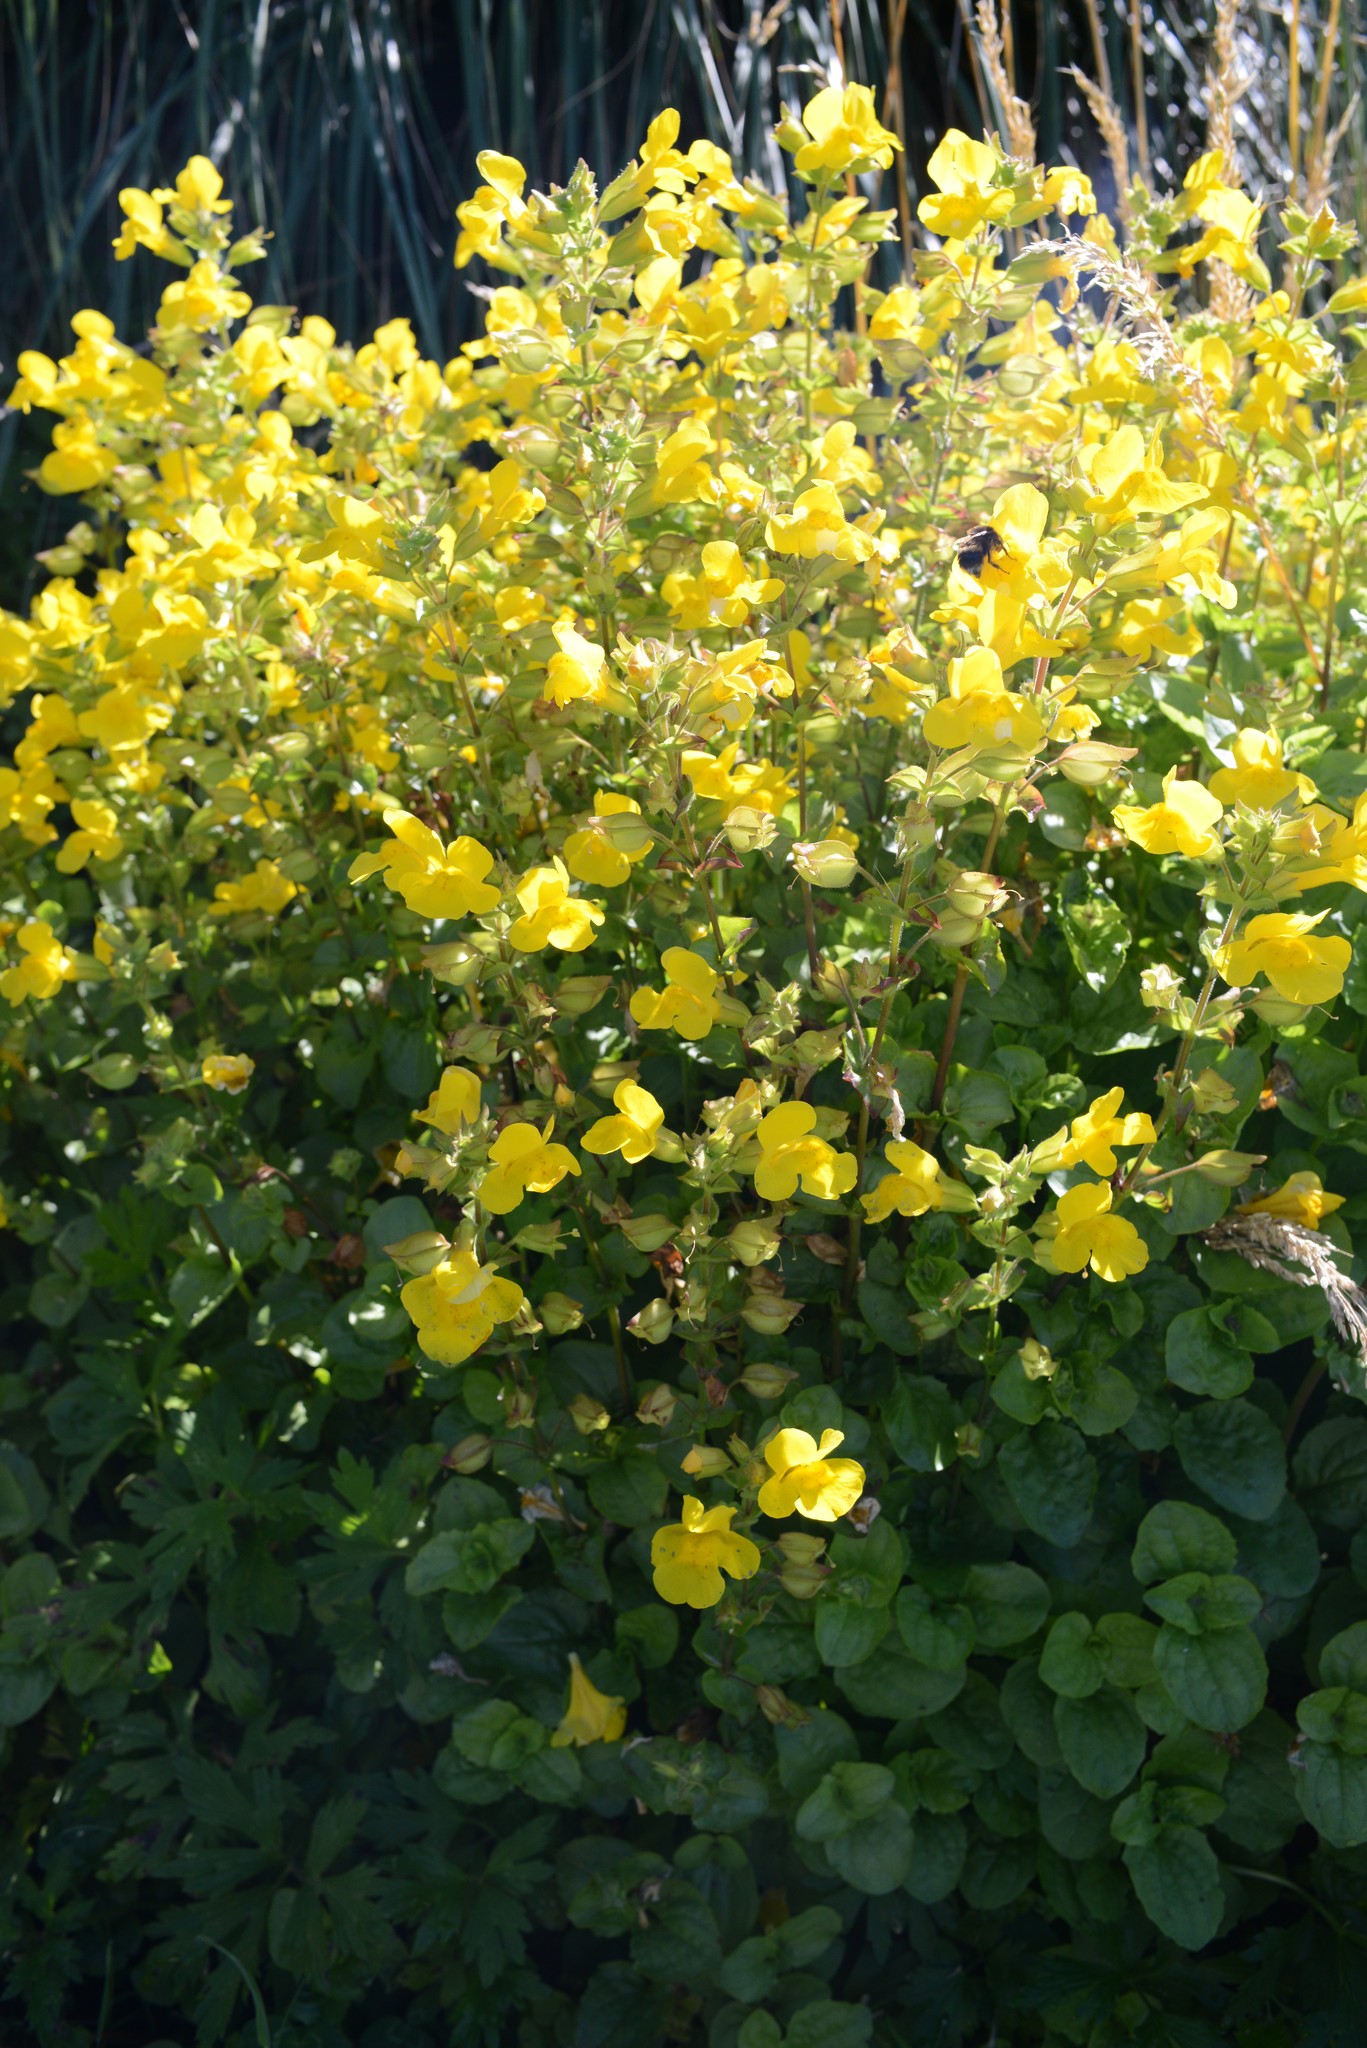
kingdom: Plantae
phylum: Tracheophyta
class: Magnoliopsida
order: Lamiales
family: Phrymaceae
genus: Erythranthe
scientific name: Erythranthe guttata
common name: Monkeyflower
